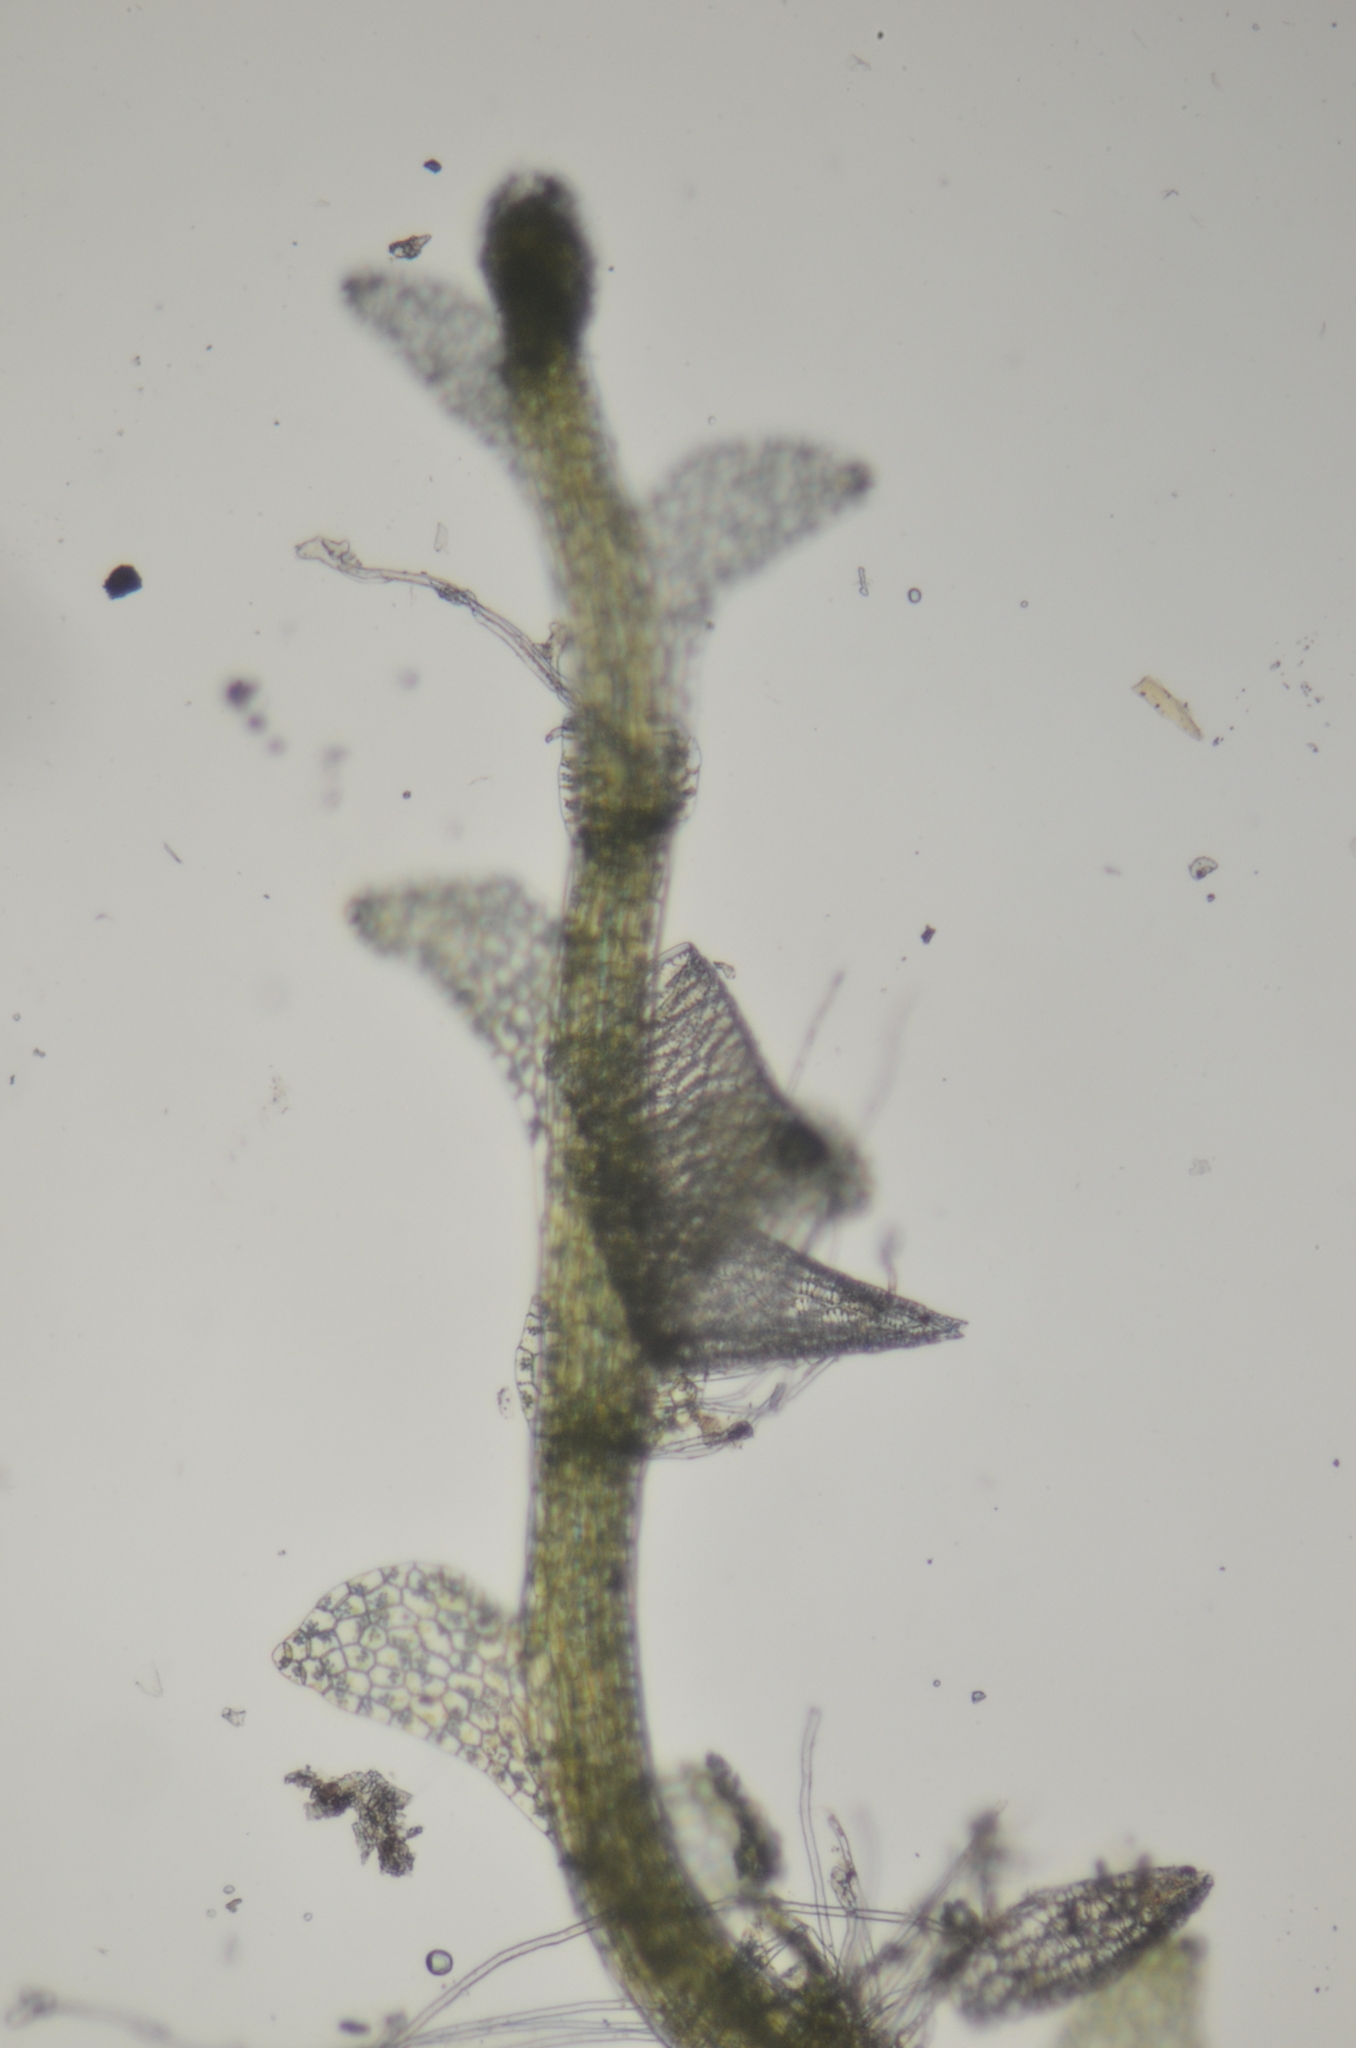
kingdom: Plantae
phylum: Marchantiophyta
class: Jungermanniopsida
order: Jungermanniales
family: Calypogeiaceae
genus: Calypogeia
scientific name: Calypogeia sphagnicola
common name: Bog pouchwort
